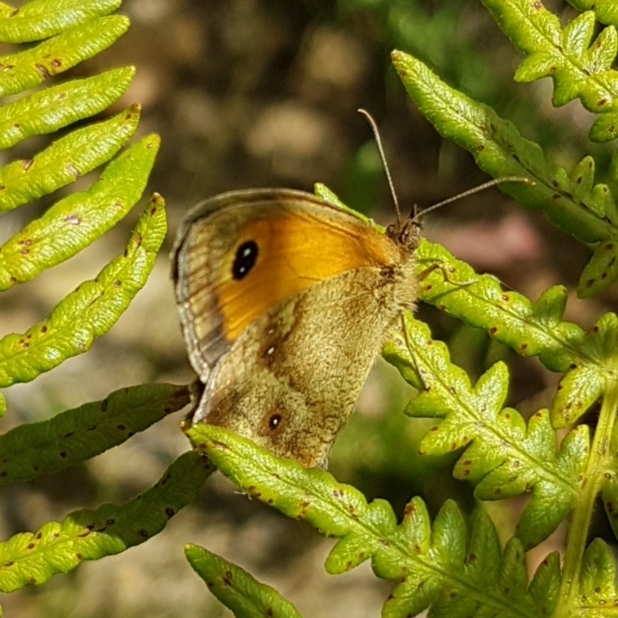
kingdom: Animalia
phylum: Arthropoda
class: Insecta
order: Lepidoptera
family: Nymphalidae
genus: Pyronia
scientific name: Pyronia tithonus
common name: Gatekeeper
